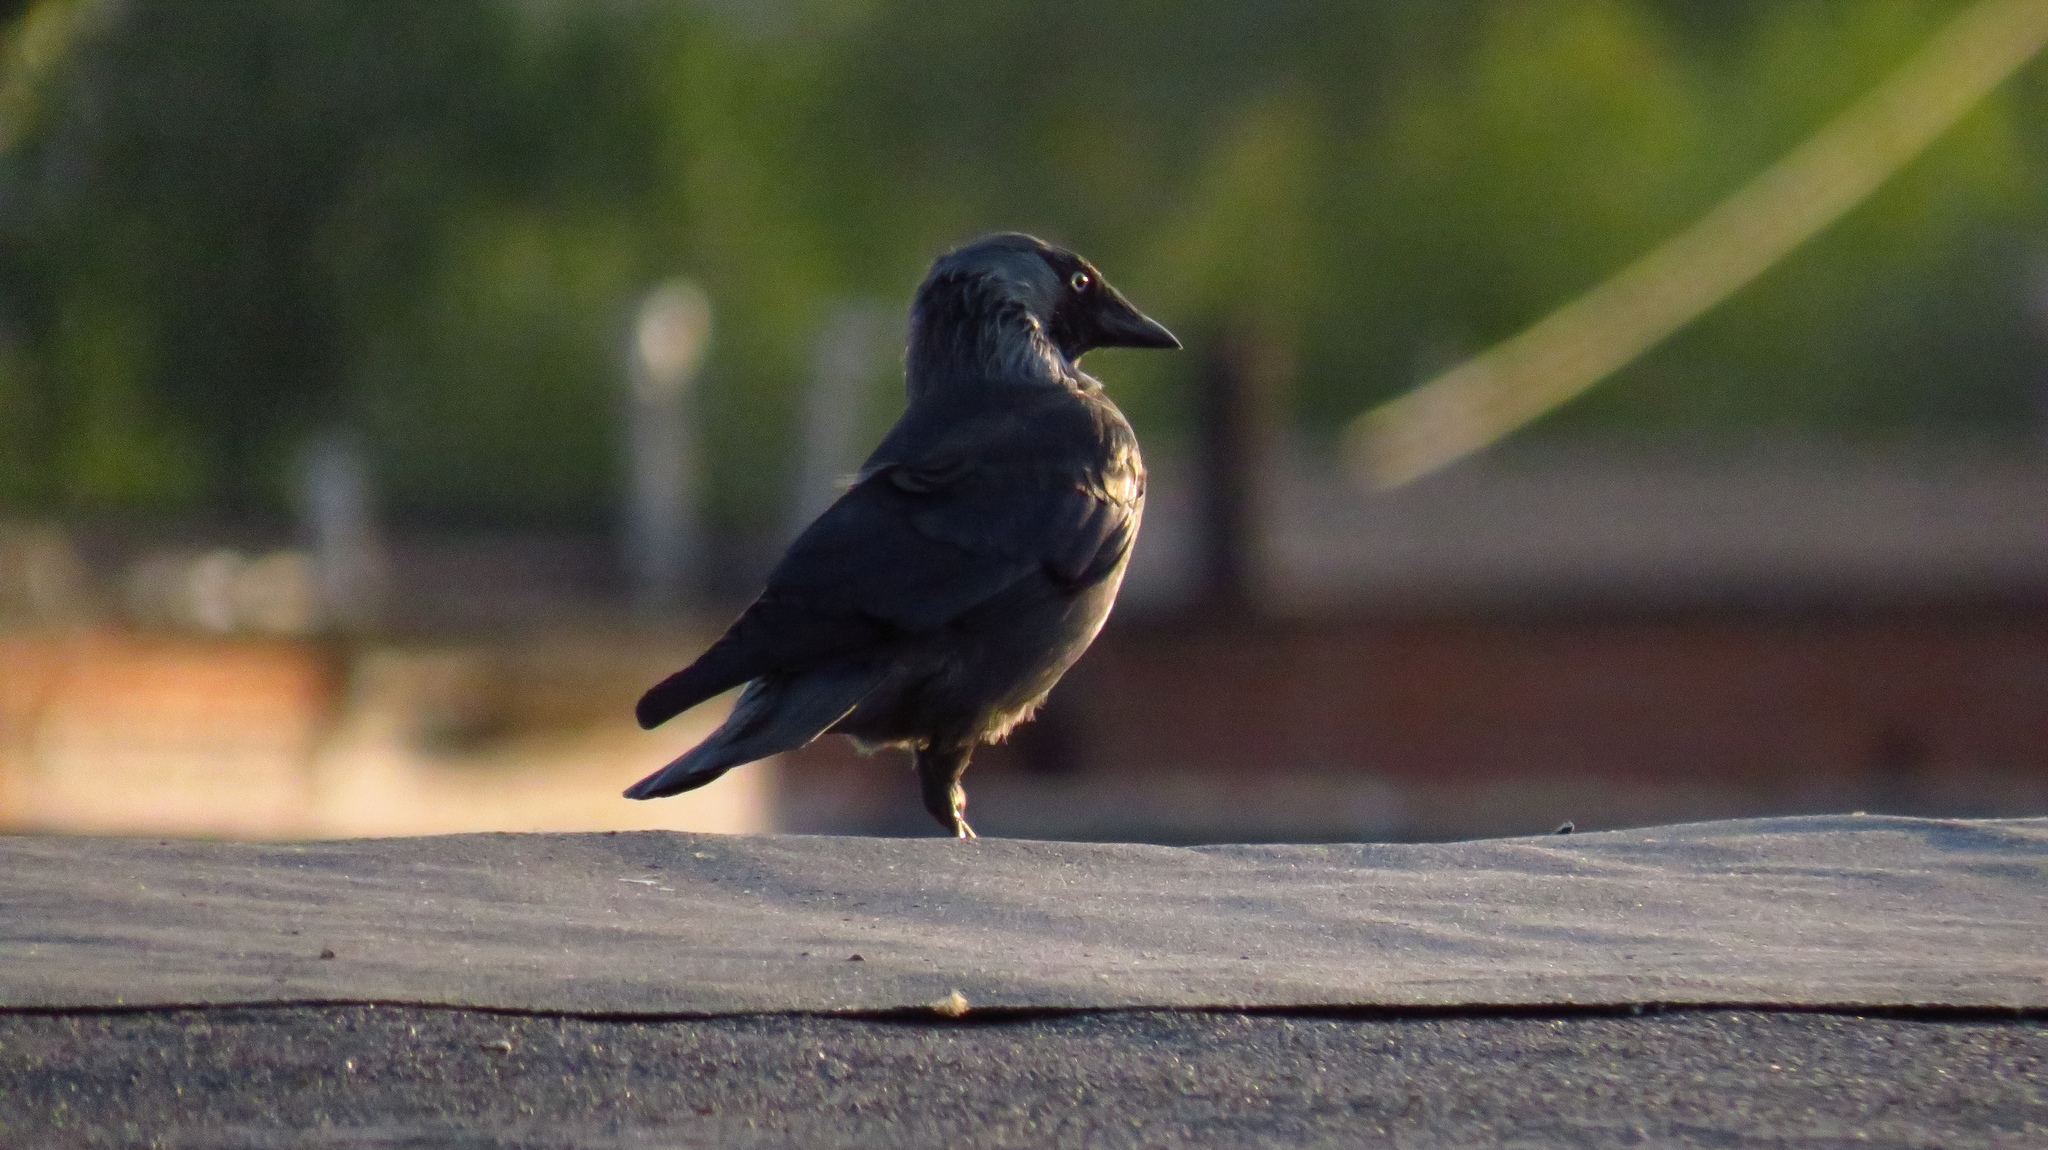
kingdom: Animalia
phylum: Chordata
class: Aves
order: Passeriformes
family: Corvidae
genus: Coloeus
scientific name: Coloeus monedula
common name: Western jackdaw
